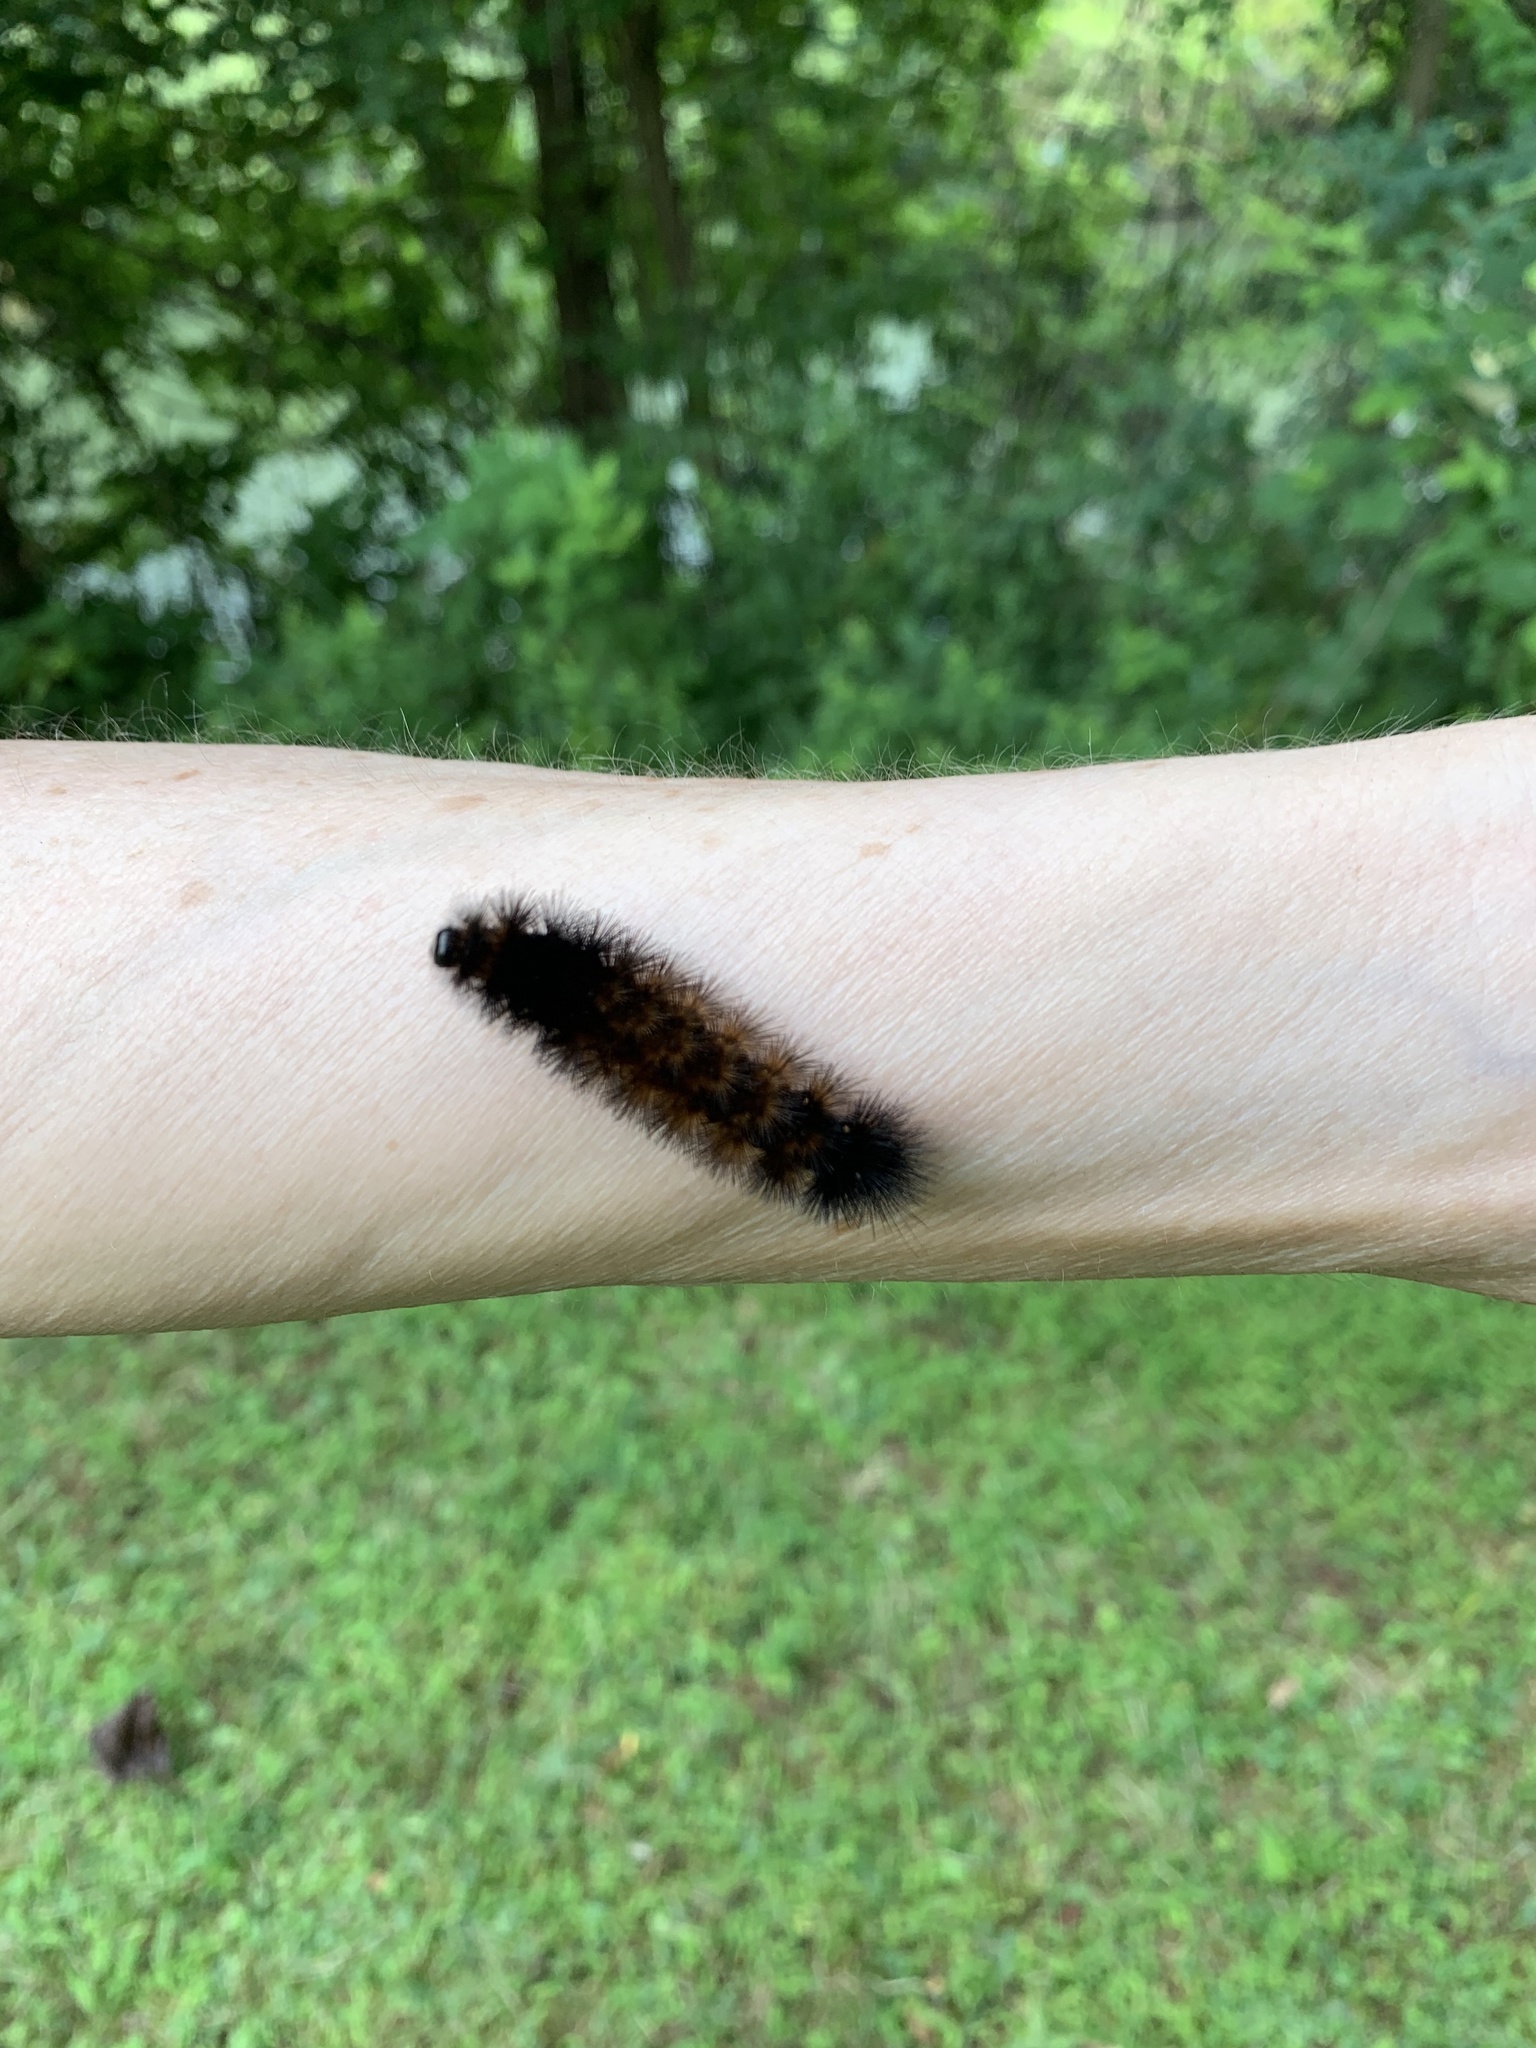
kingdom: Animalia
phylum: Arthropoda
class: Insecta
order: Lepidoptera
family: Erebidae
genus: Pyrrharctia
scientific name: Pyrrharctia isabella
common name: Isabella tiger moth
